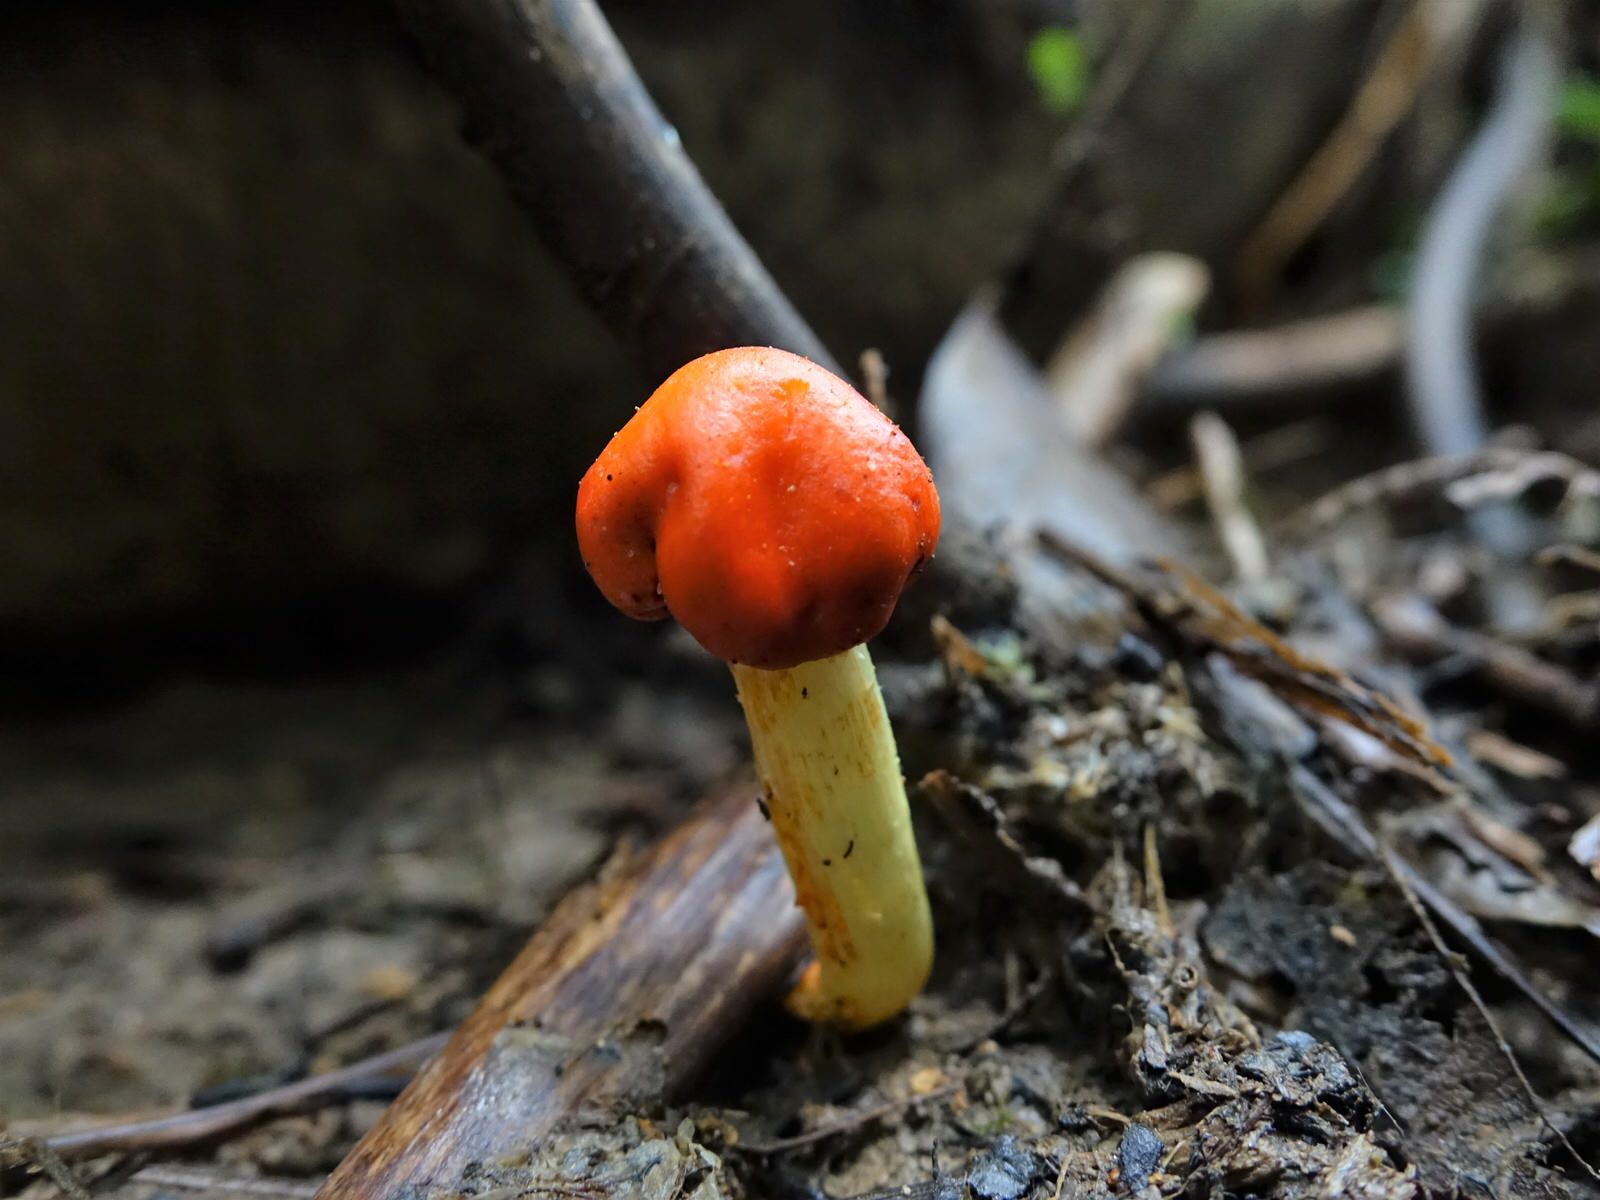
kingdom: Fungi
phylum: Basidiomycota
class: Agaricomycetes
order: Agaricales
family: Strophariaceae
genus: Leratiomyces
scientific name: Leratiomyces erythrocephalus
